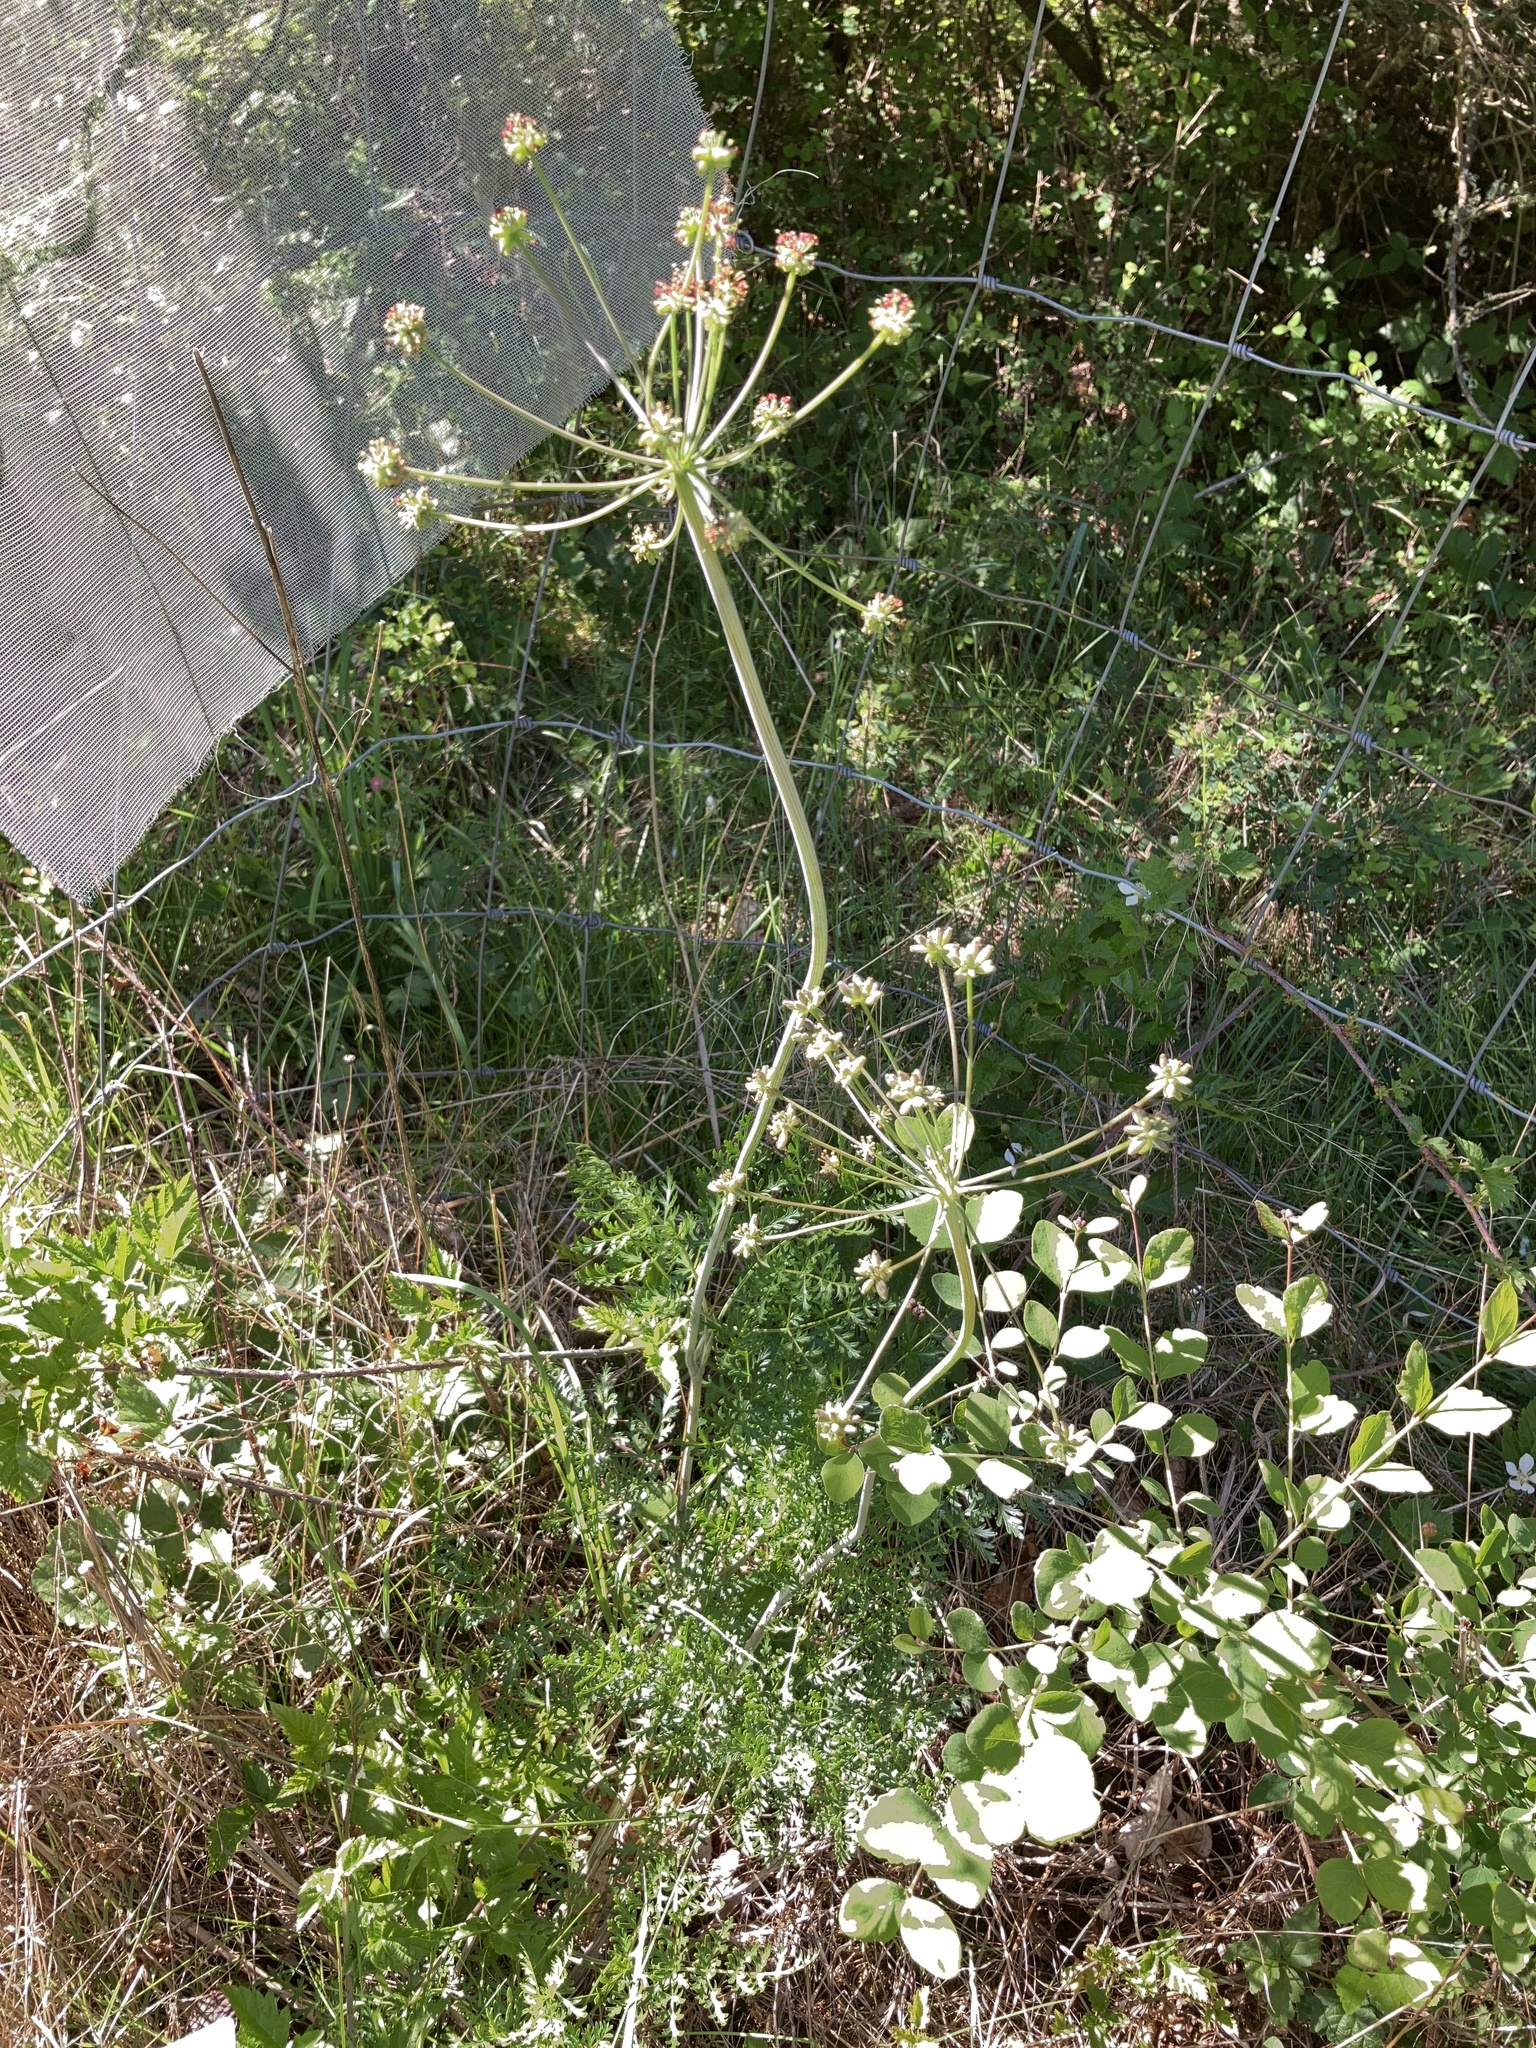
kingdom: Plantae
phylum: Tracheophyta
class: Magnoliopsida
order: Apiales
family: Apiaceae
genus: Lomatium
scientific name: Lomatium dissectum
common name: Lomatium
